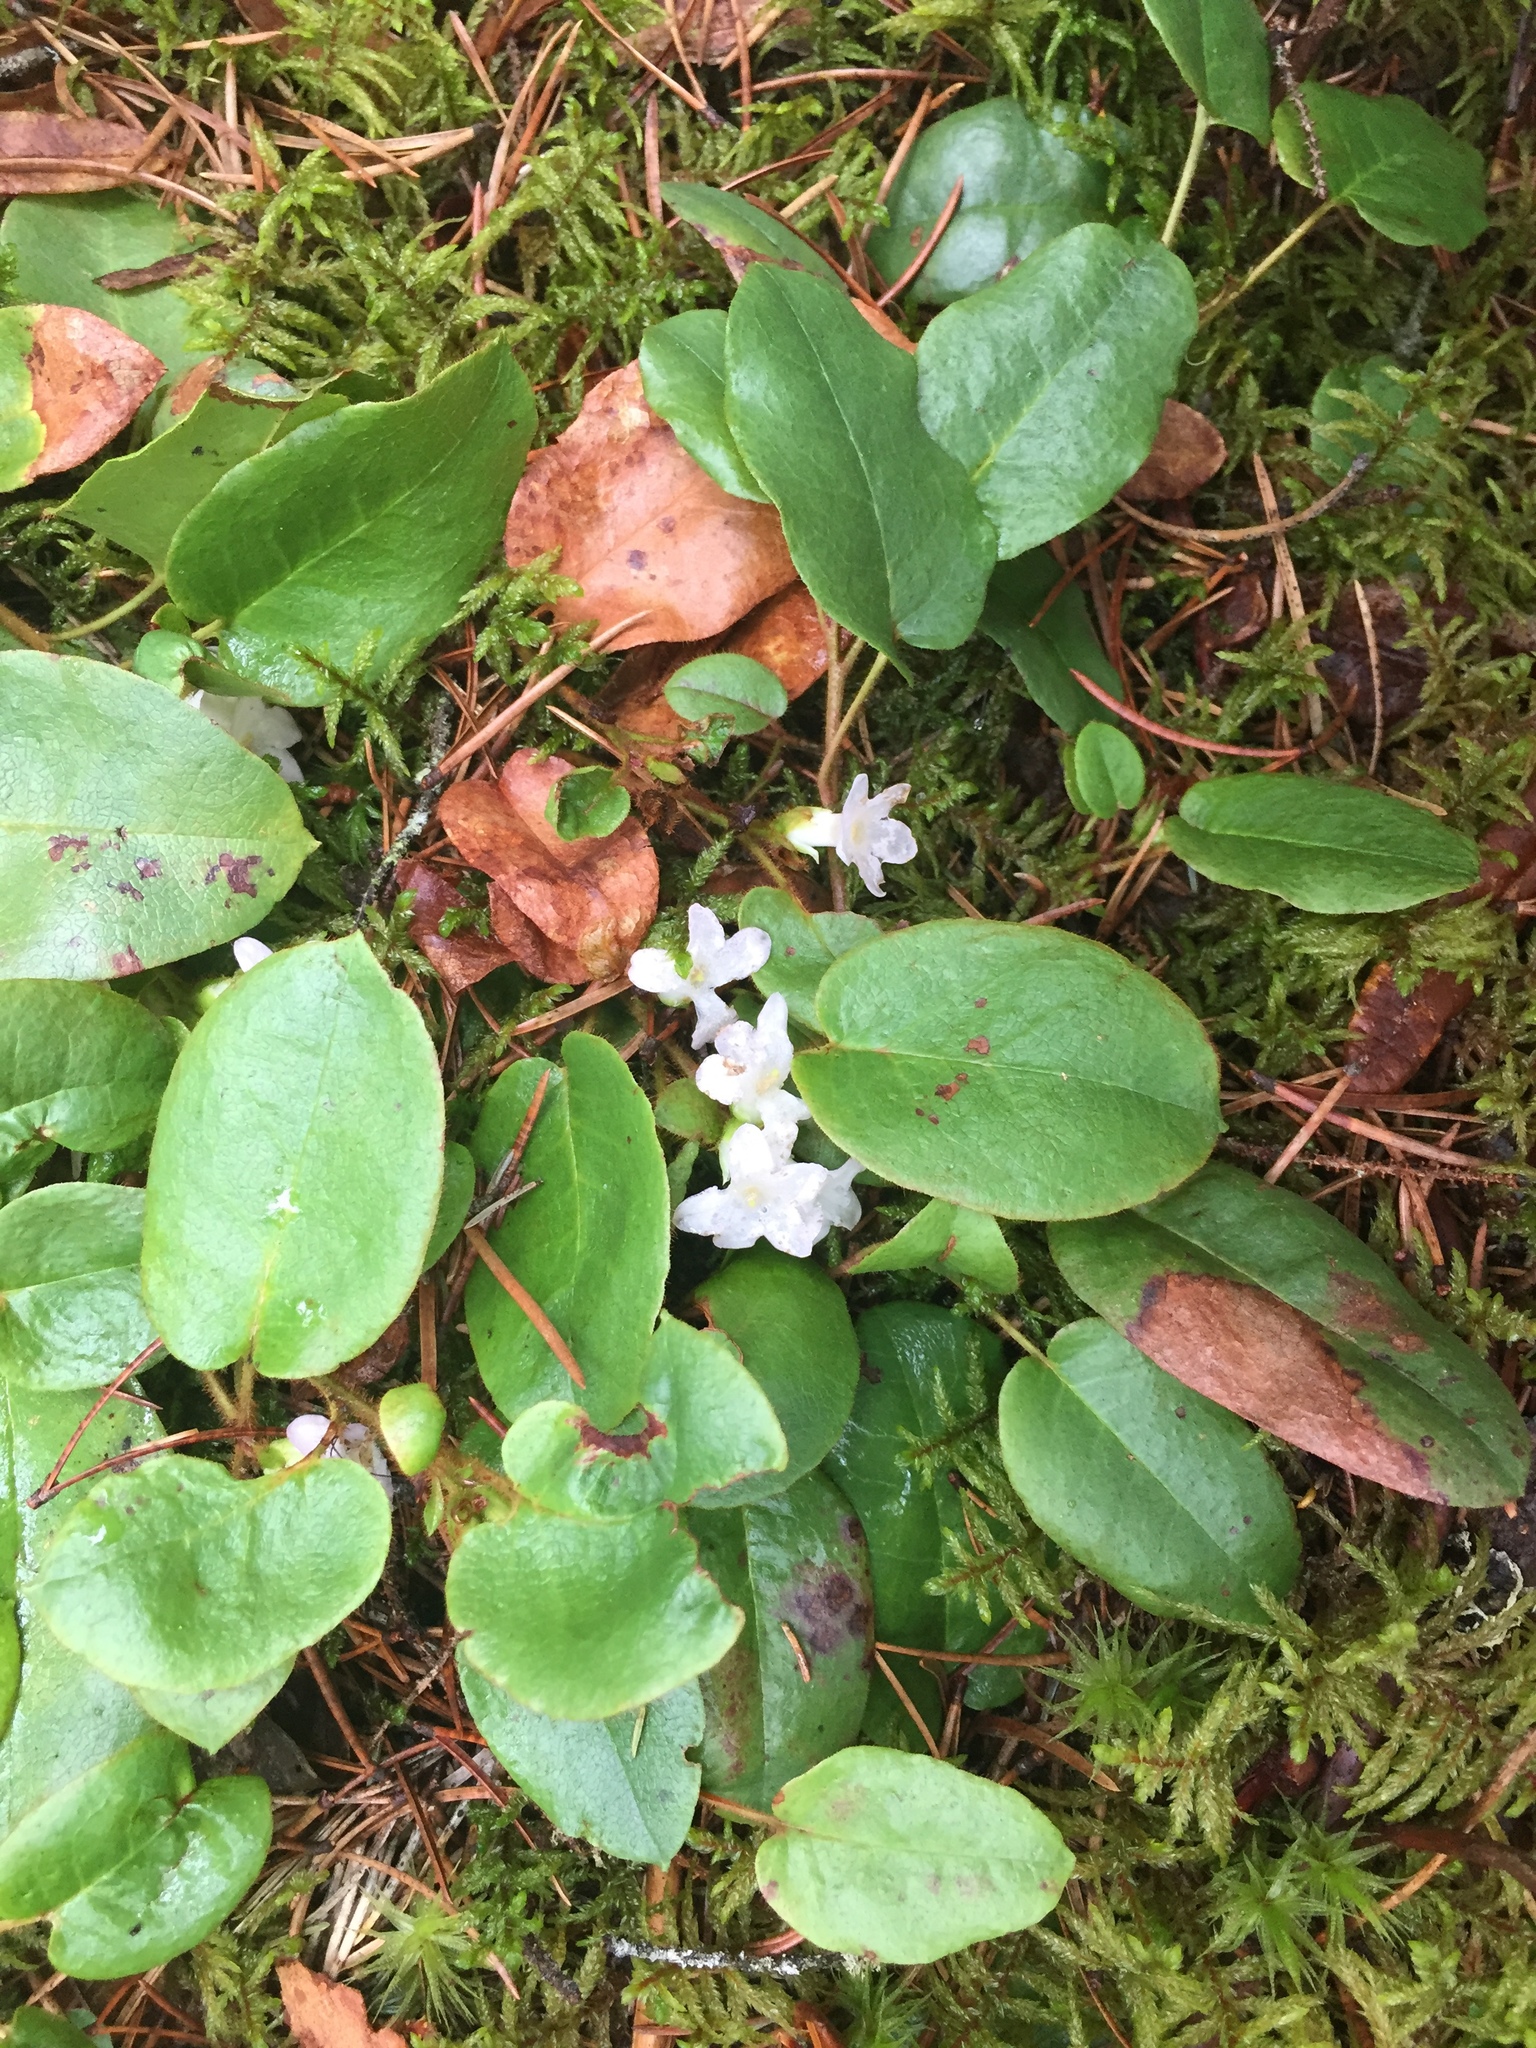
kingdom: Plantae
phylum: Tracheophyta
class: Magnoliopsida
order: Ericales
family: Ericaceae
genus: Epigaea
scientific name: Epigaea repens
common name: Gravelroot
